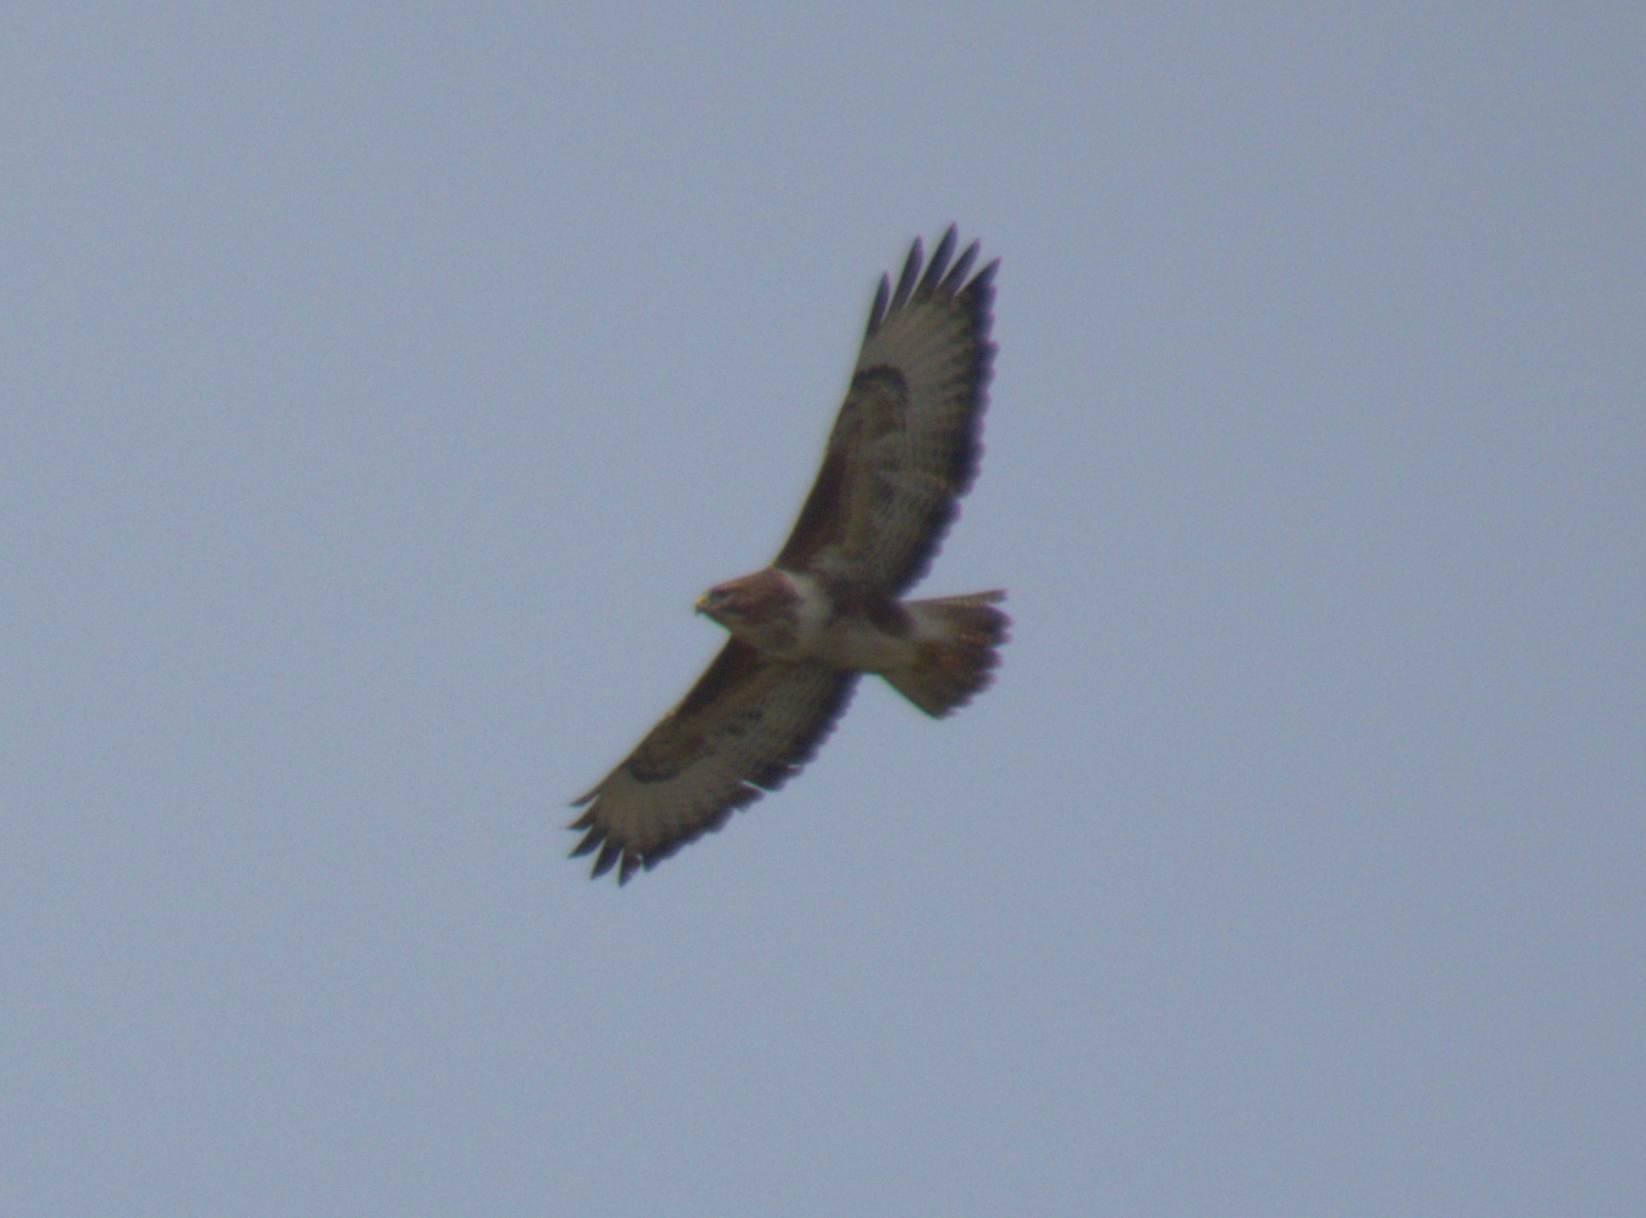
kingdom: Animalia
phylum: Chordata
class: Aves
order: Accipitriformes
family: Accipitridae
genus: Buteo
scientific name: Buteo buteo
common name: Common buzzard
